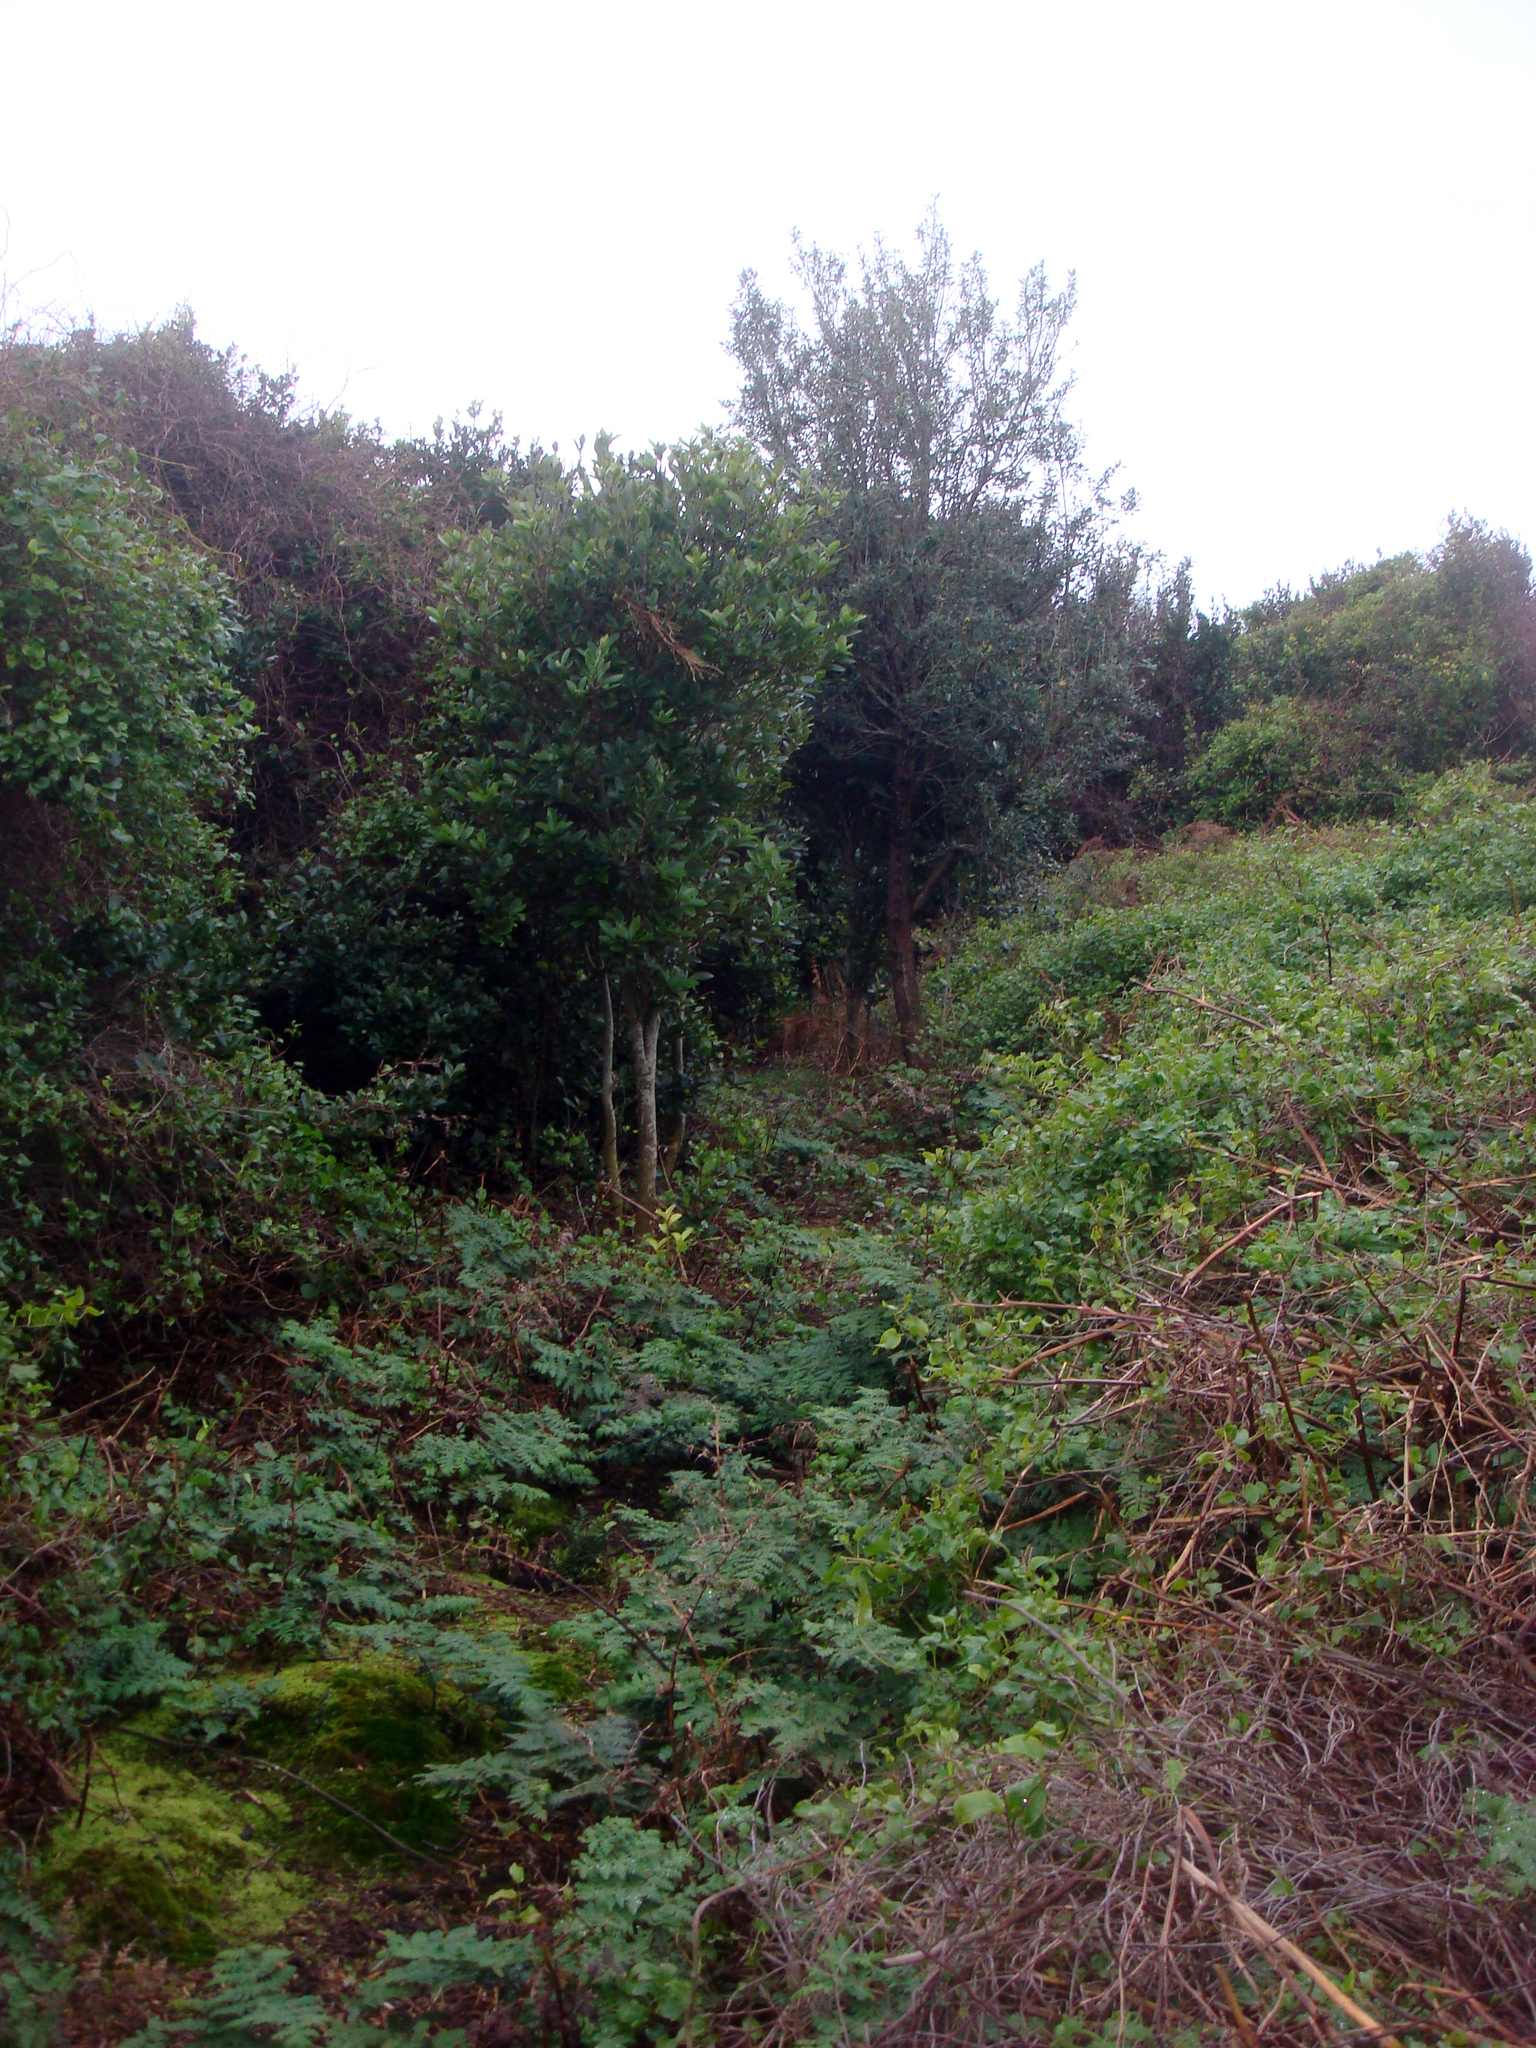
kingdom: Plantae
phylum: Tracheophyta
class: Magnoliopsida
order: Caryophyllales
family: Polygonaceae
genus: Muehlenbeckia
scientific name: Muehlenbeckia australis
